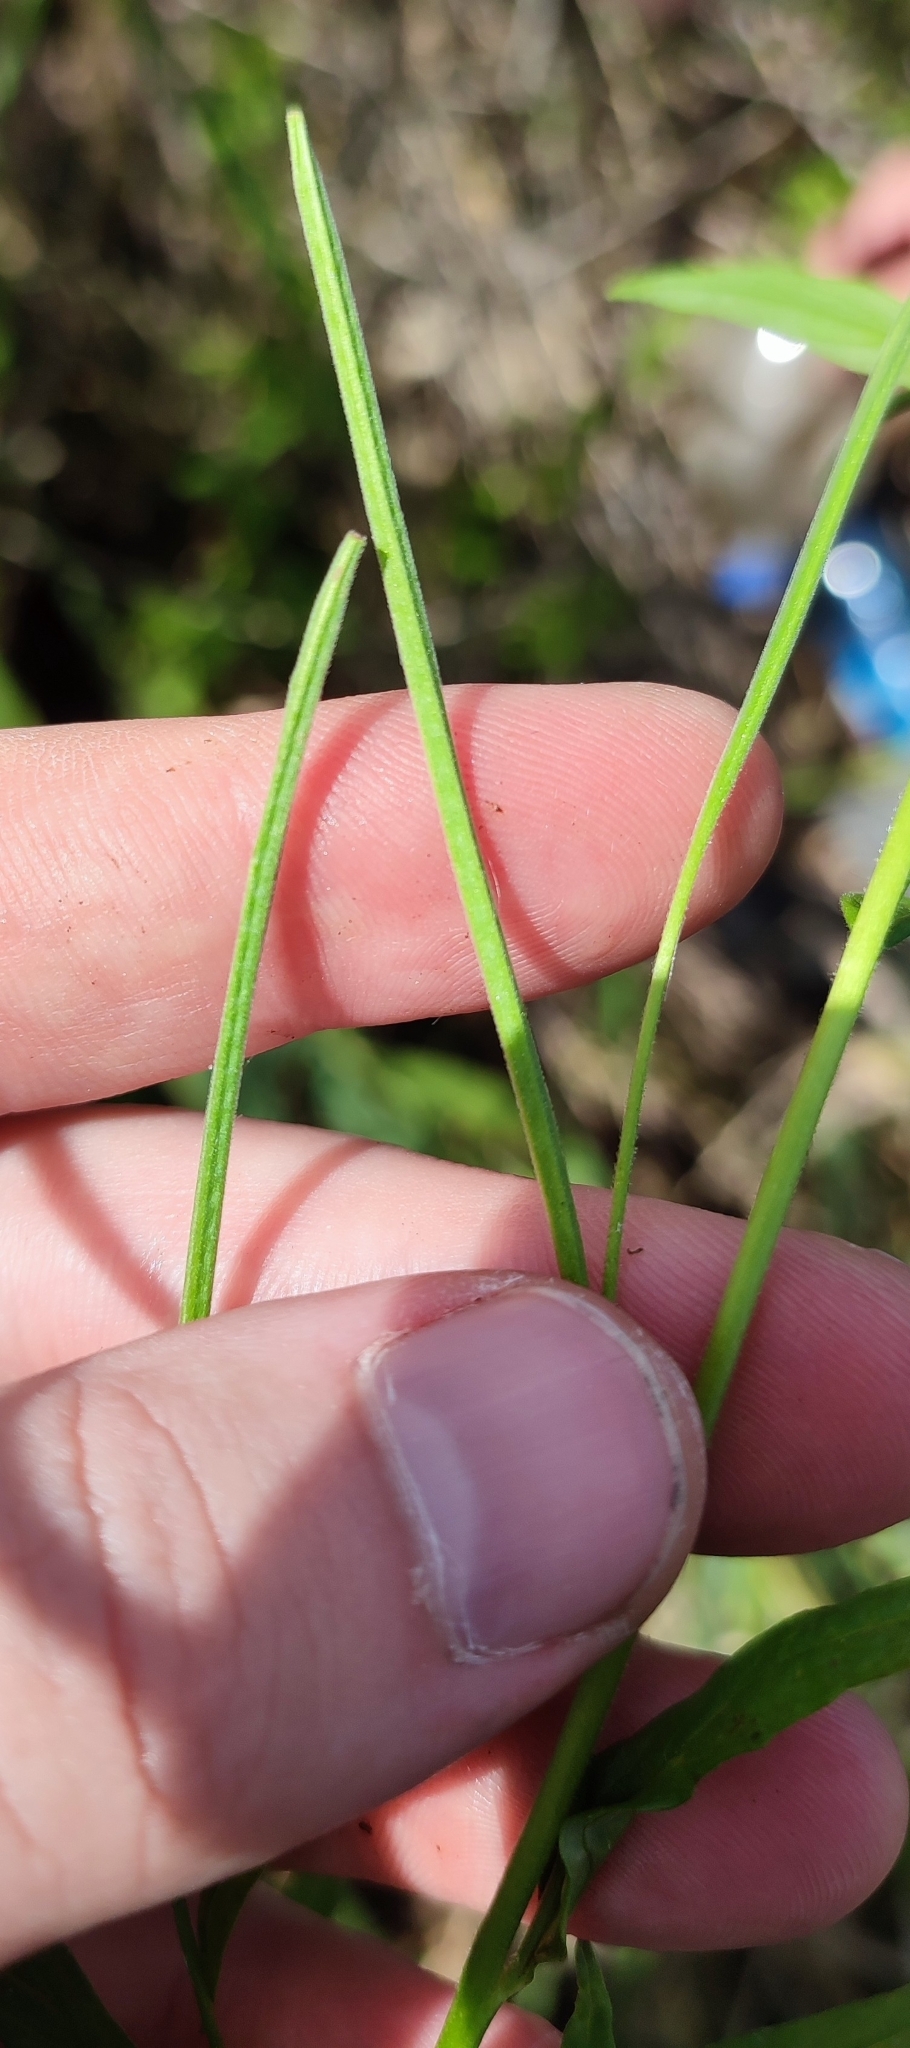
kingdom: Plantae
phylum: Tracheophyta
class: Magnoliopsida
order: Myrtales
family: Onagraceae
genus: Epilobium
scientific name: Epilobium pseudorubescens
